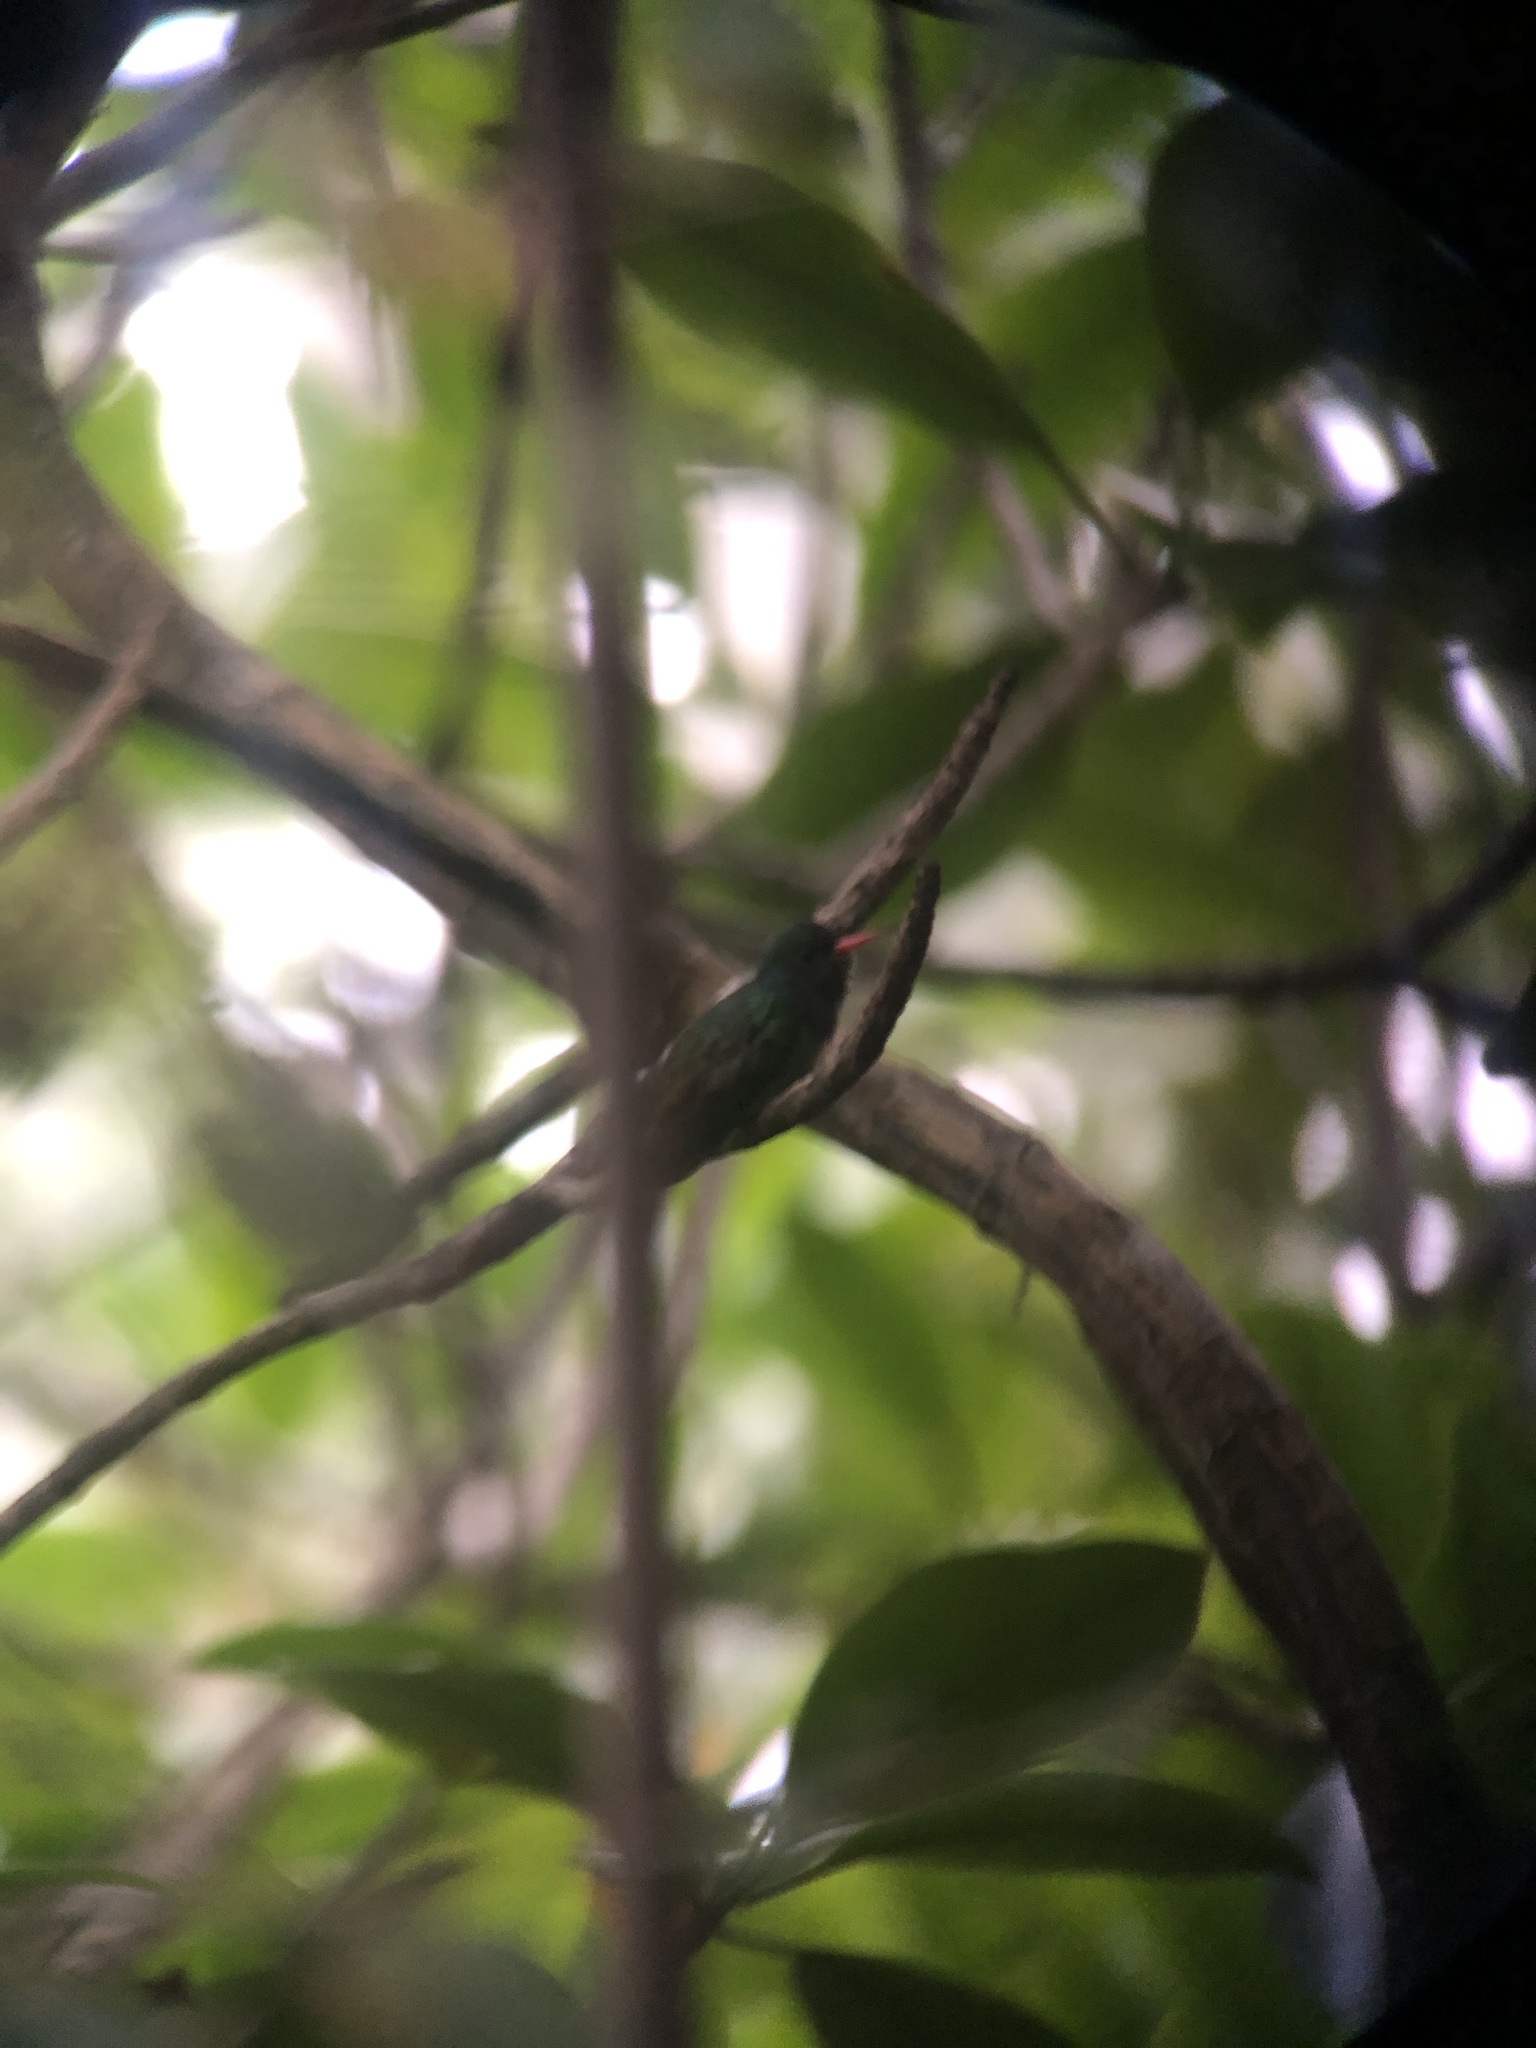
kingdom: Animalia
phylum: Chordata
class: Aves
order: Apodiformes
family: Trochilidae
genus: Chlorestes
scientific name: Chlorestes eliciae
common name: Blue-throated sapphire
